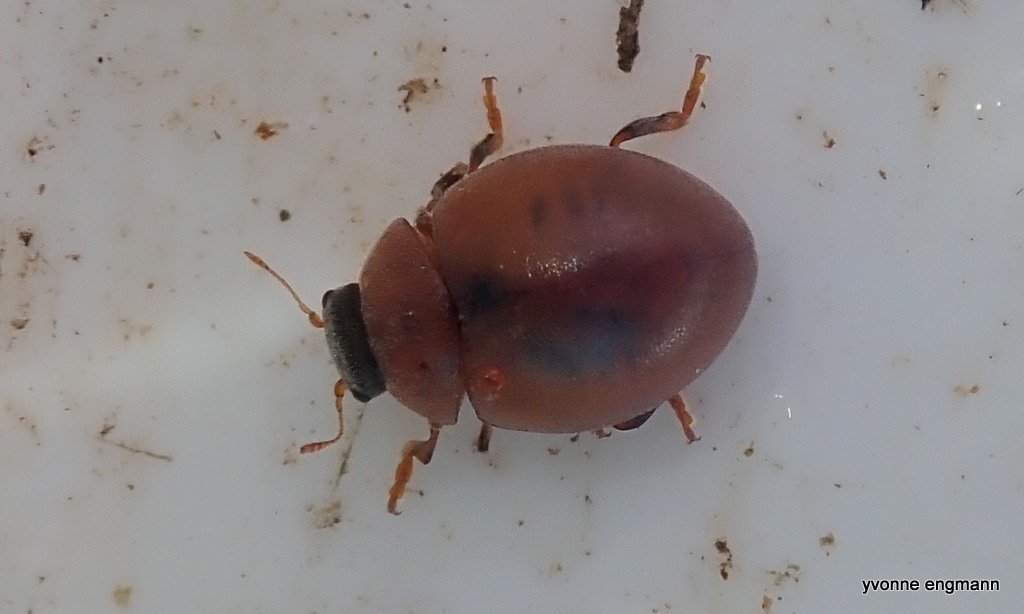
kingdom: Animalia
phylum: Arthropoda
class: Insecta
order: Coleoptera
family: Coccinellidae
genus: Cynegetis
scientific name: Cynegetis impunctata
